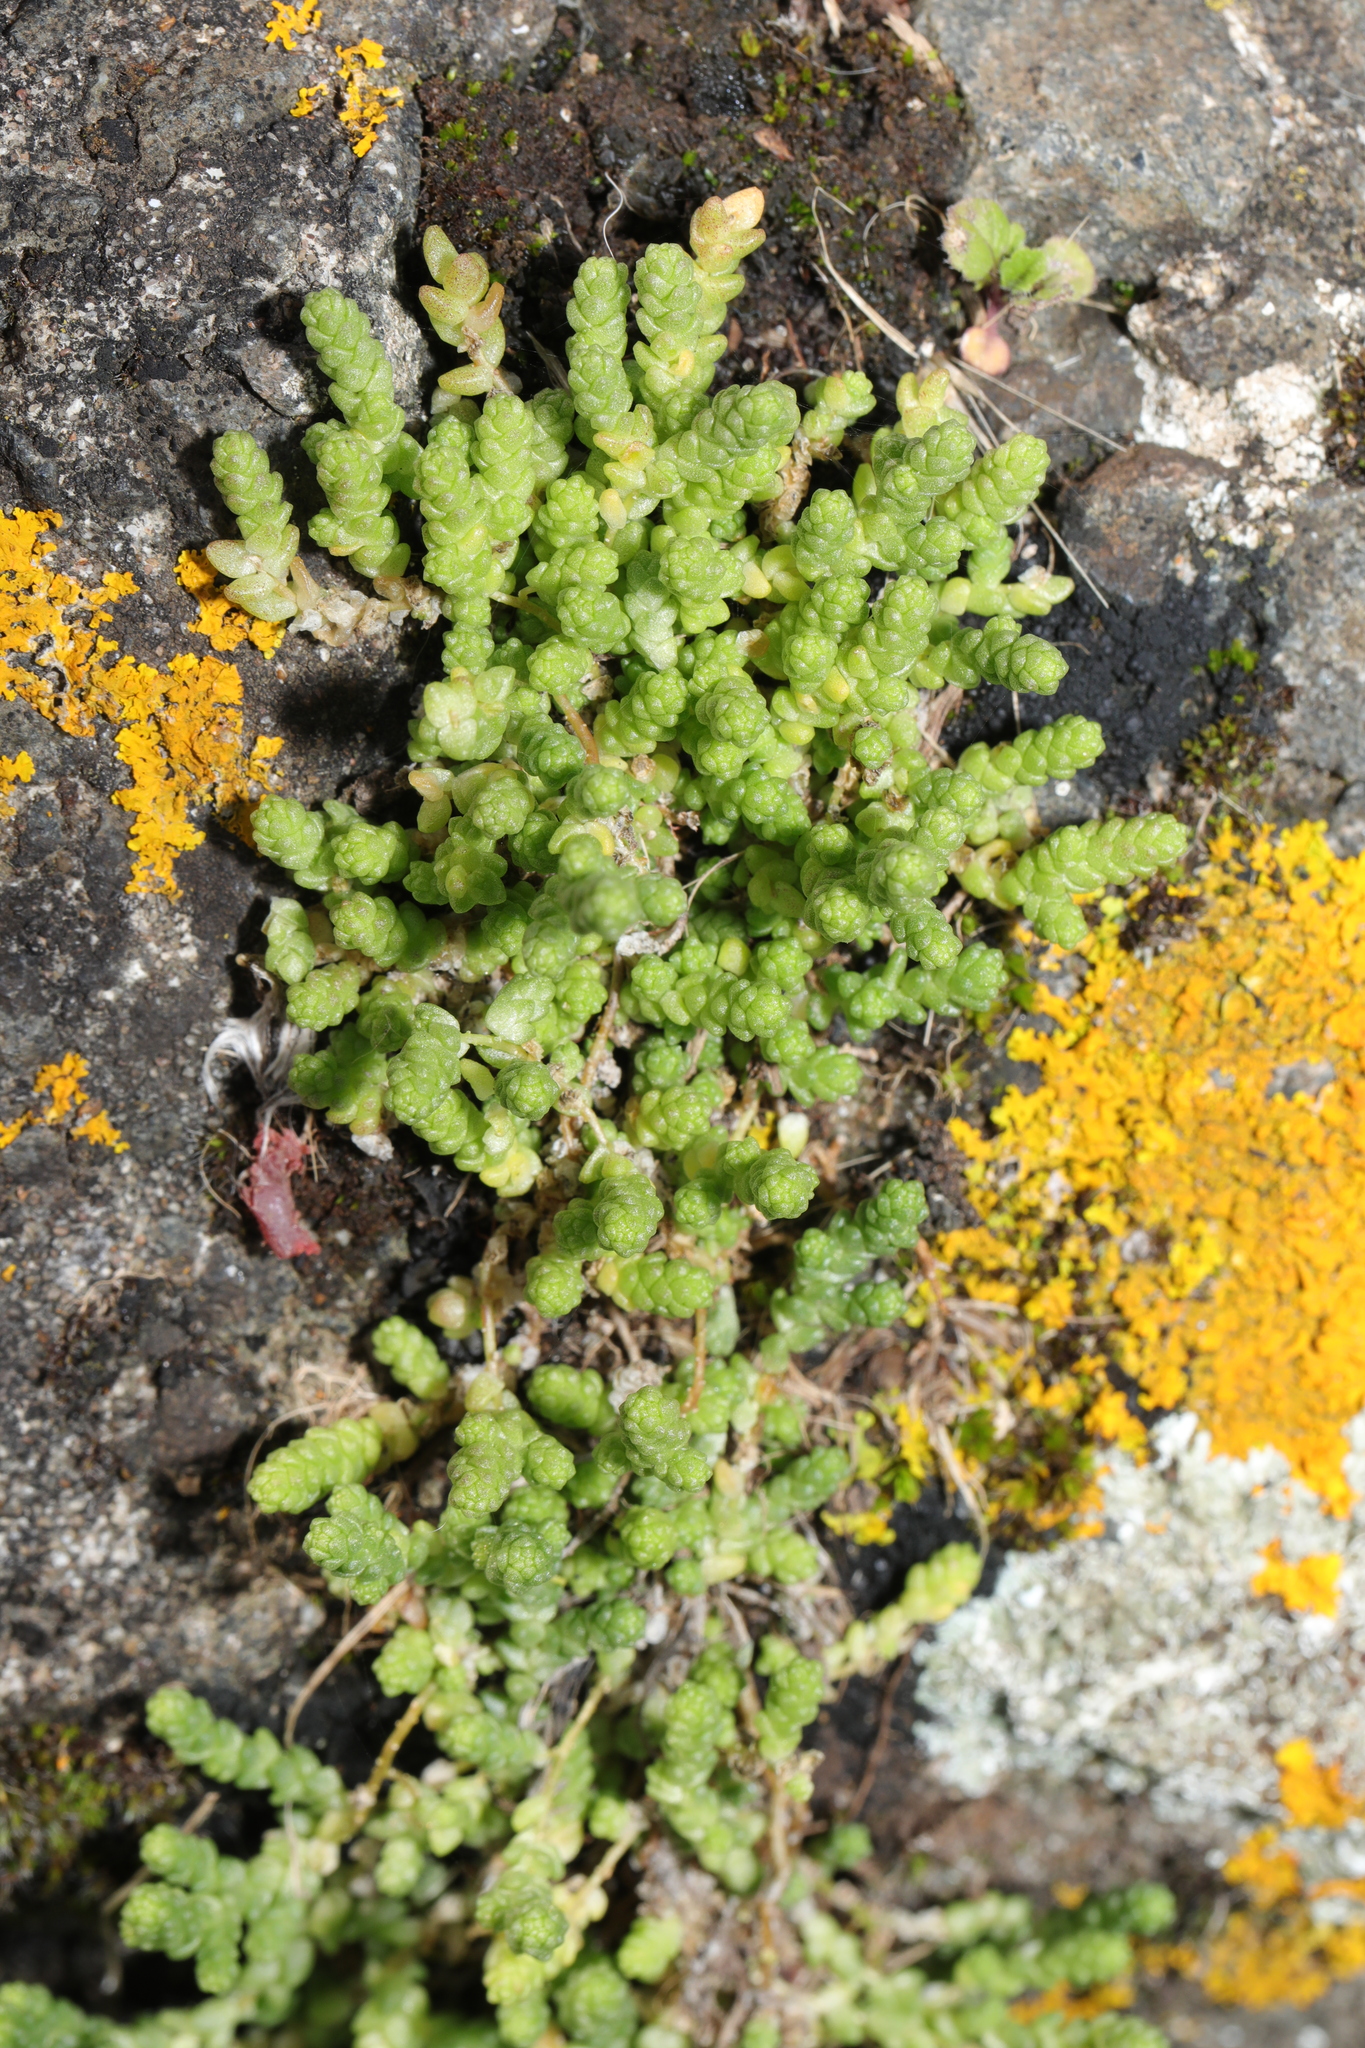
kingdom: Plantae
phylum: Tracheophyta
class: Magnoliopsida
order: Saxifragales
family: Crassulaceae
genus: Sedum
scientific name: Sedum acre
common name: Biting stonecrop
